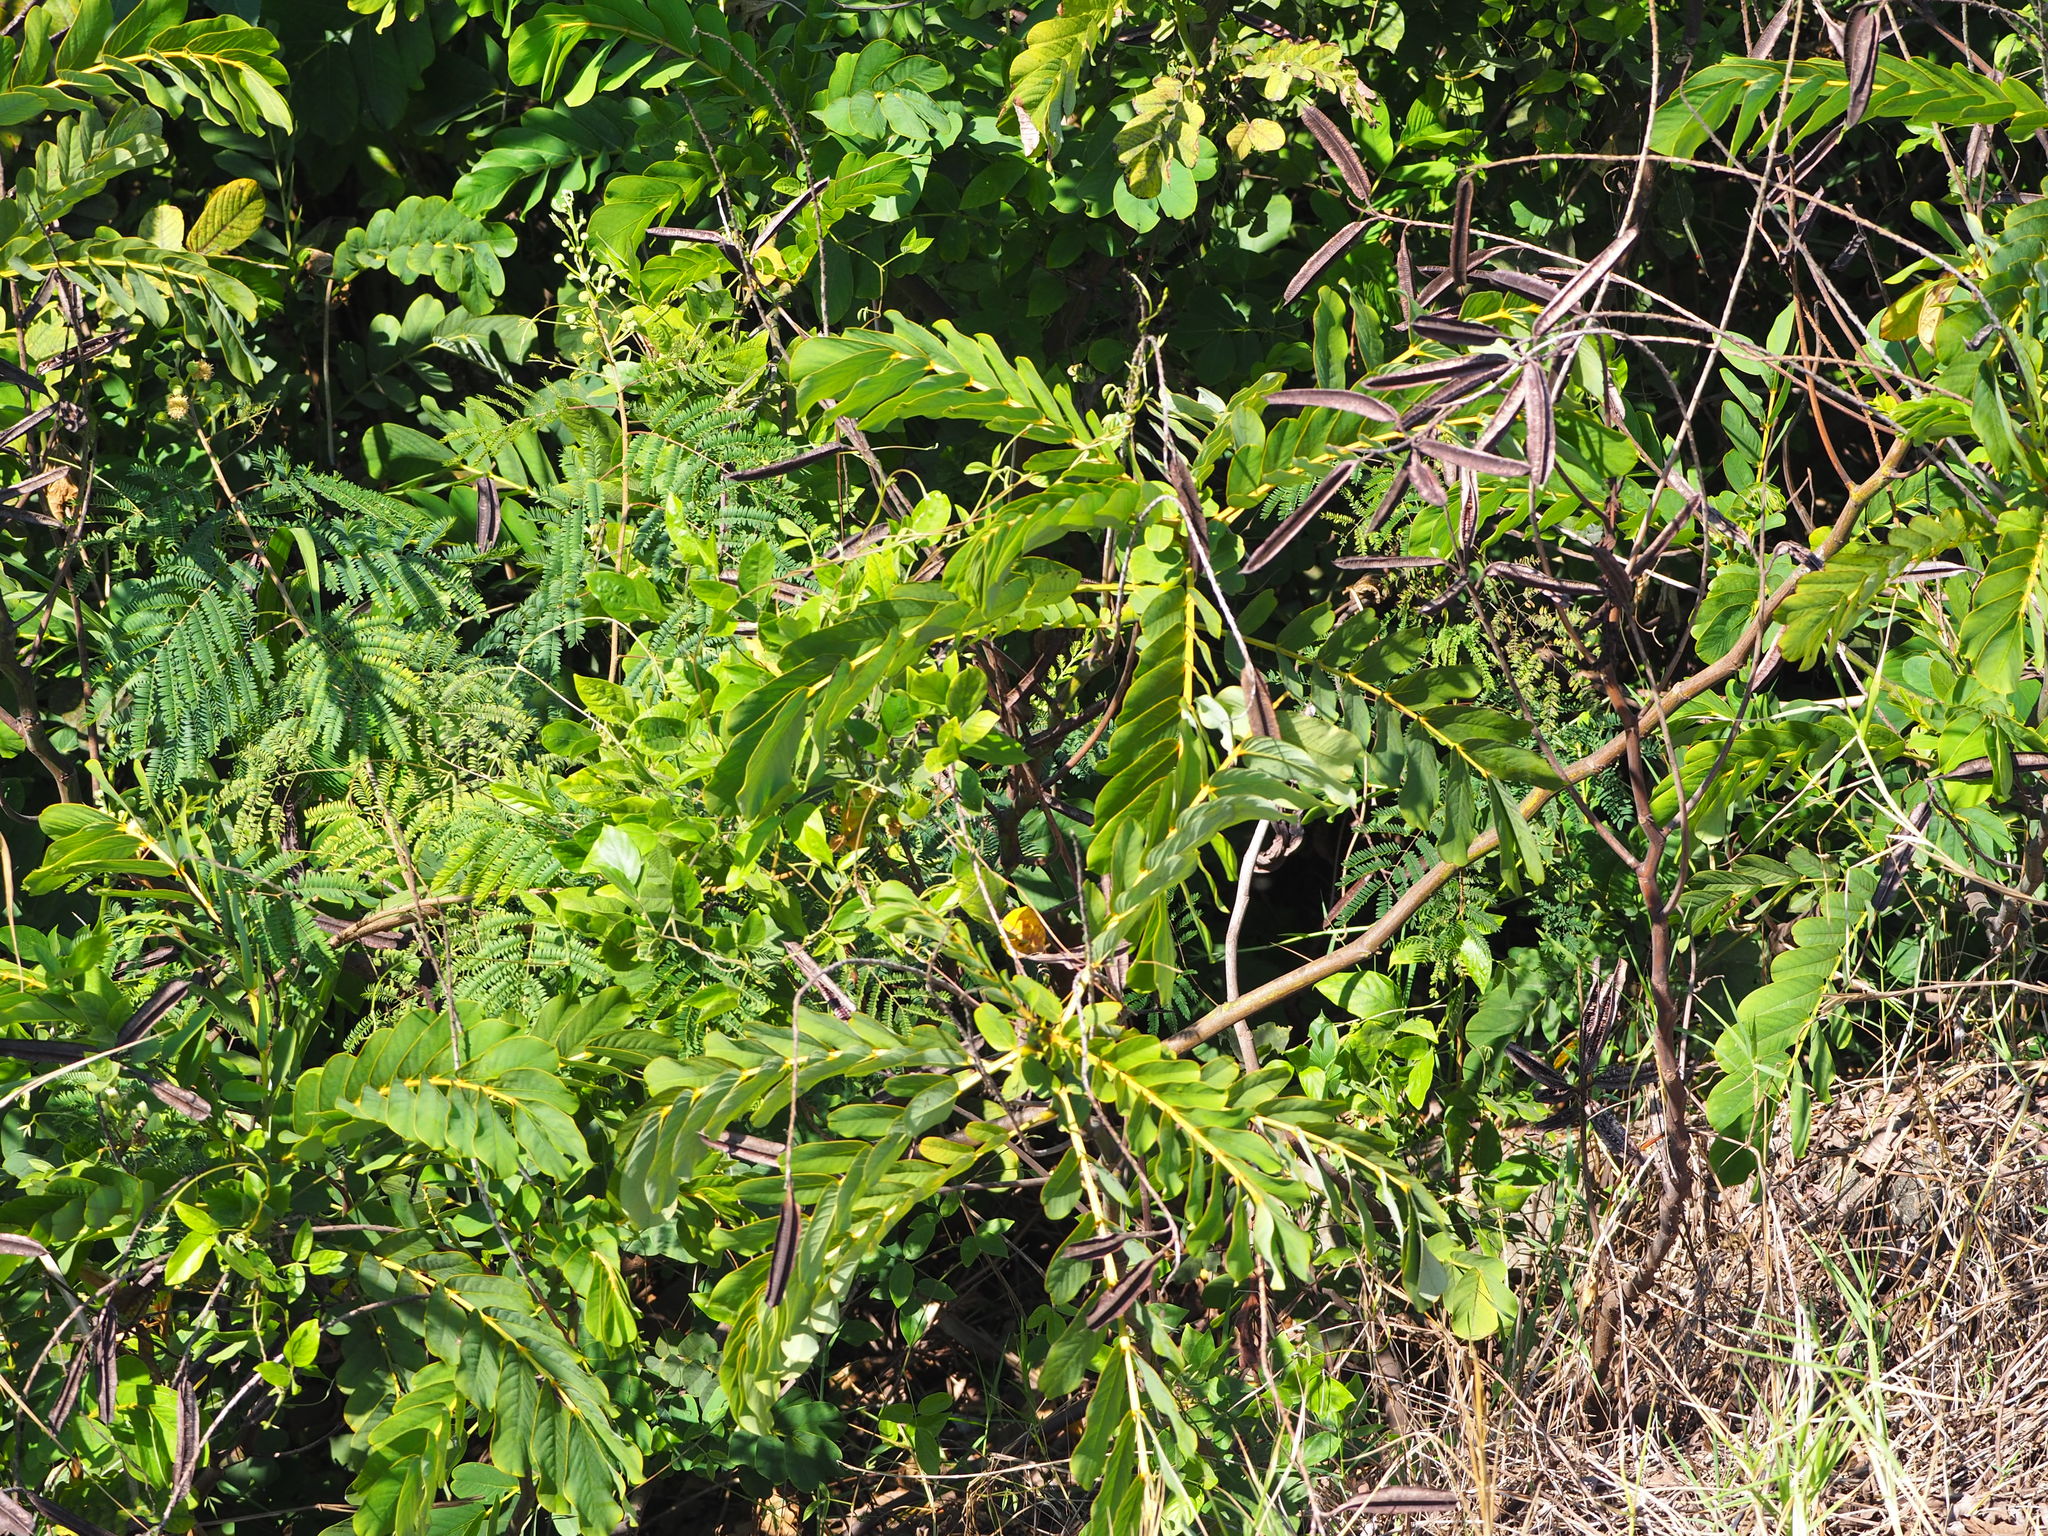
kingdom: Plantae
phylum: Tracheophyta
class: Magnoliopsida
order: Fabales
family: Fabaceae
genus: Senna
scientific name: Senna alata
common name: Emperor's candlesticks
